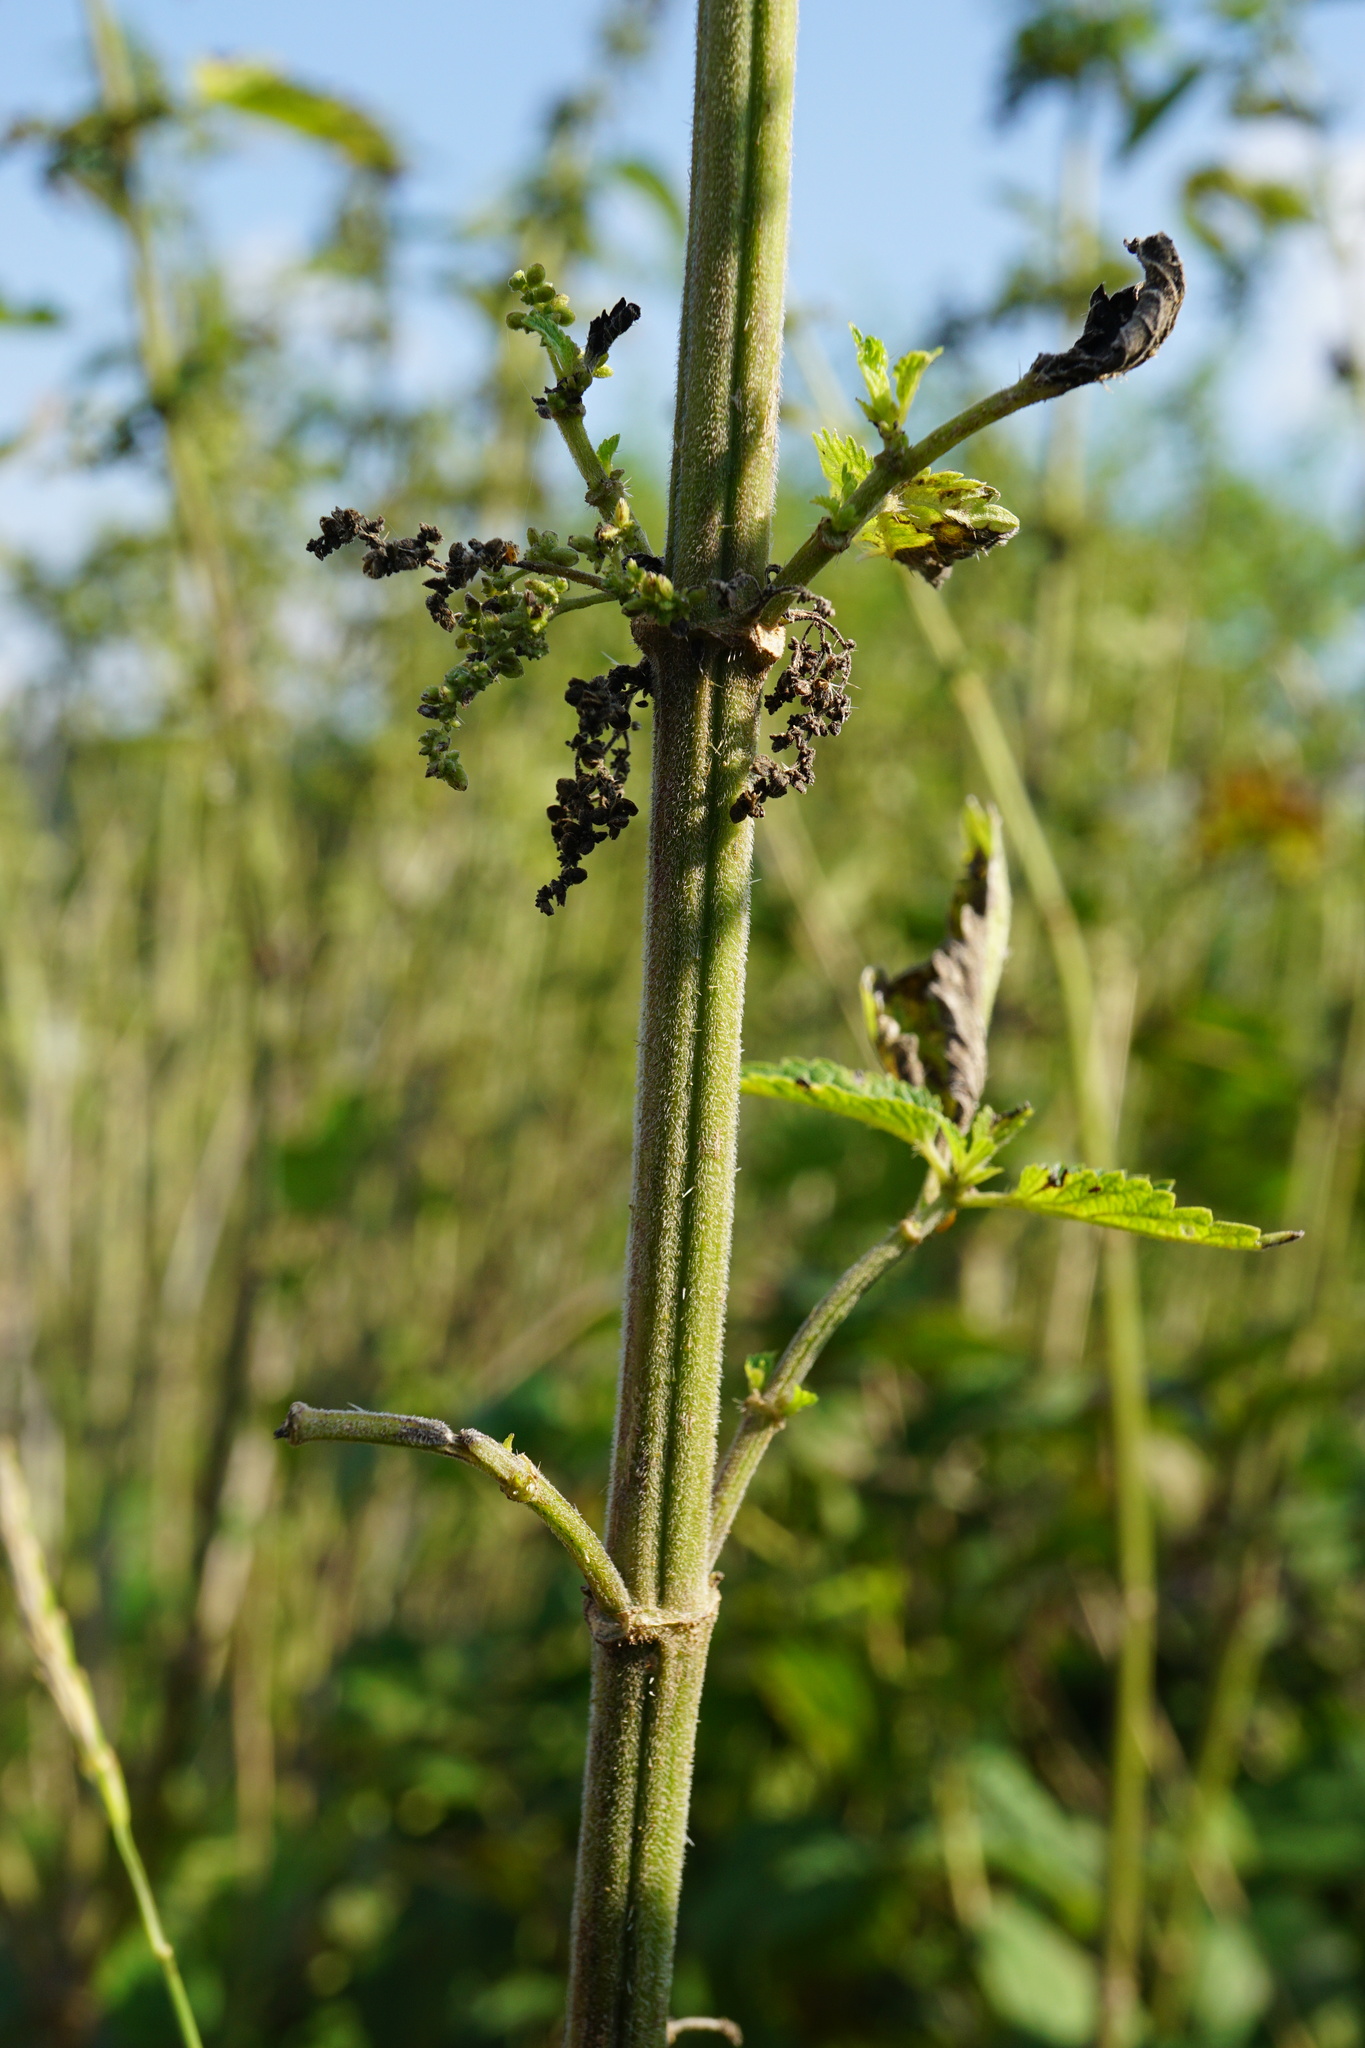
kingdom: Plantae
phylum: Tracheophyta
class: Magnoliopsida
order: Rosales
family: Urticaceae
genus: Urtica
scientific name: Urtica dioica
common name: Common nettle
